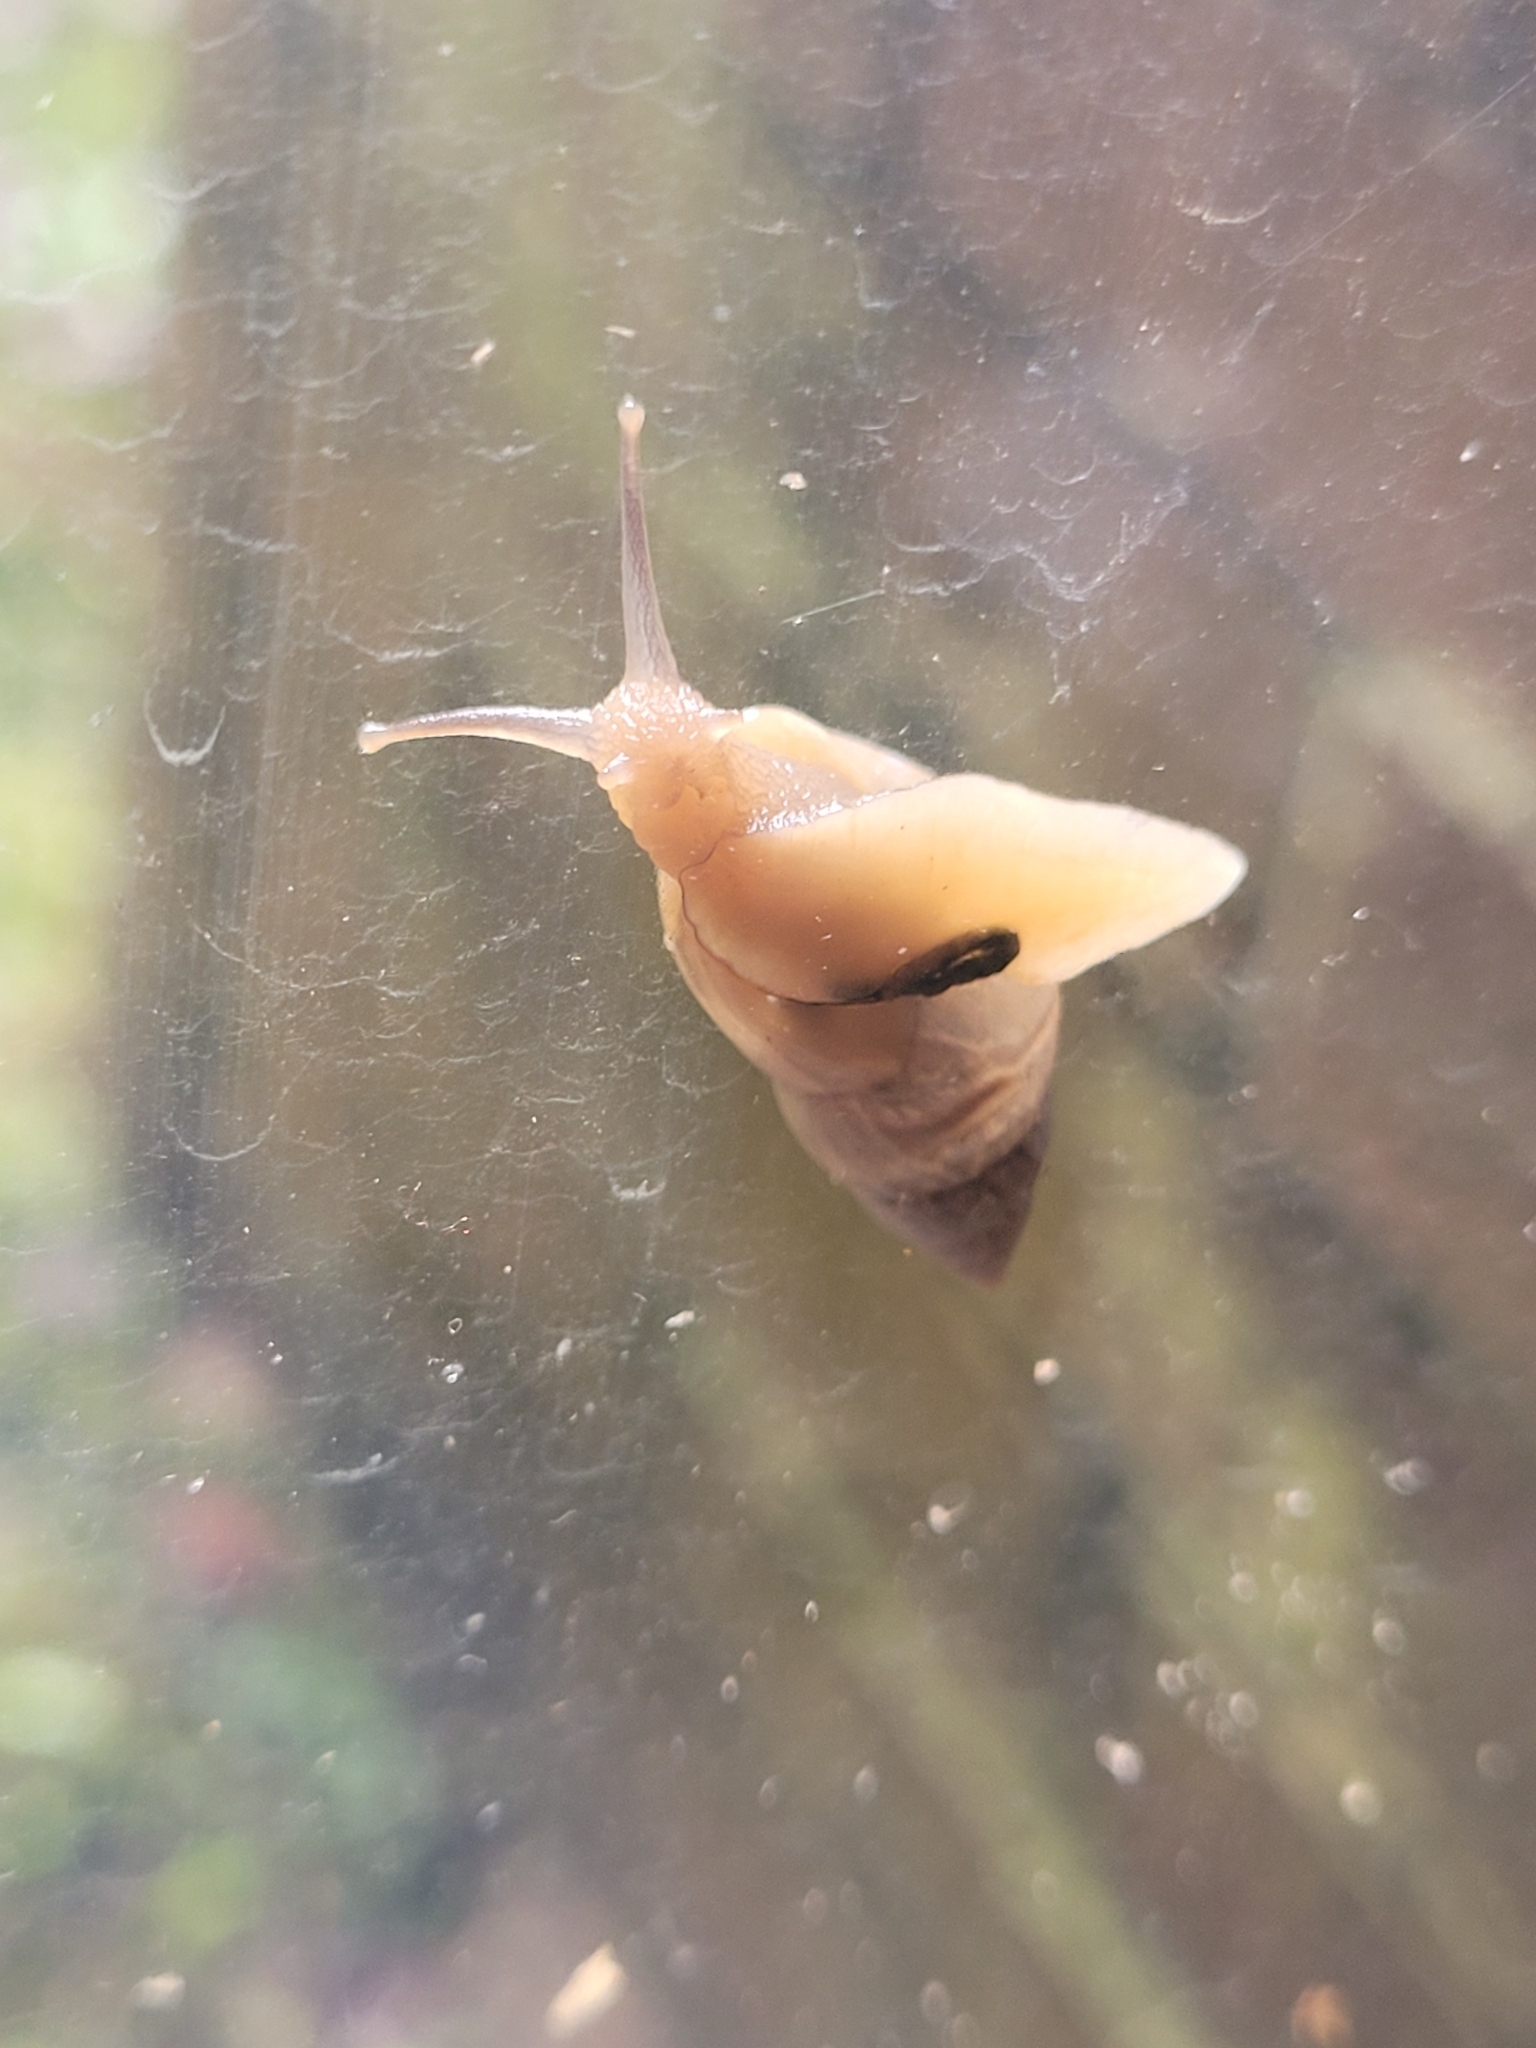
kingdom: Animalia
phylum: Mollusca
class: Gastropoda
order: Stylommatophora
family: Bulimulidae
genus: Bulimulus
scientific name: Bulimulus bonariensis
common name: Snail
